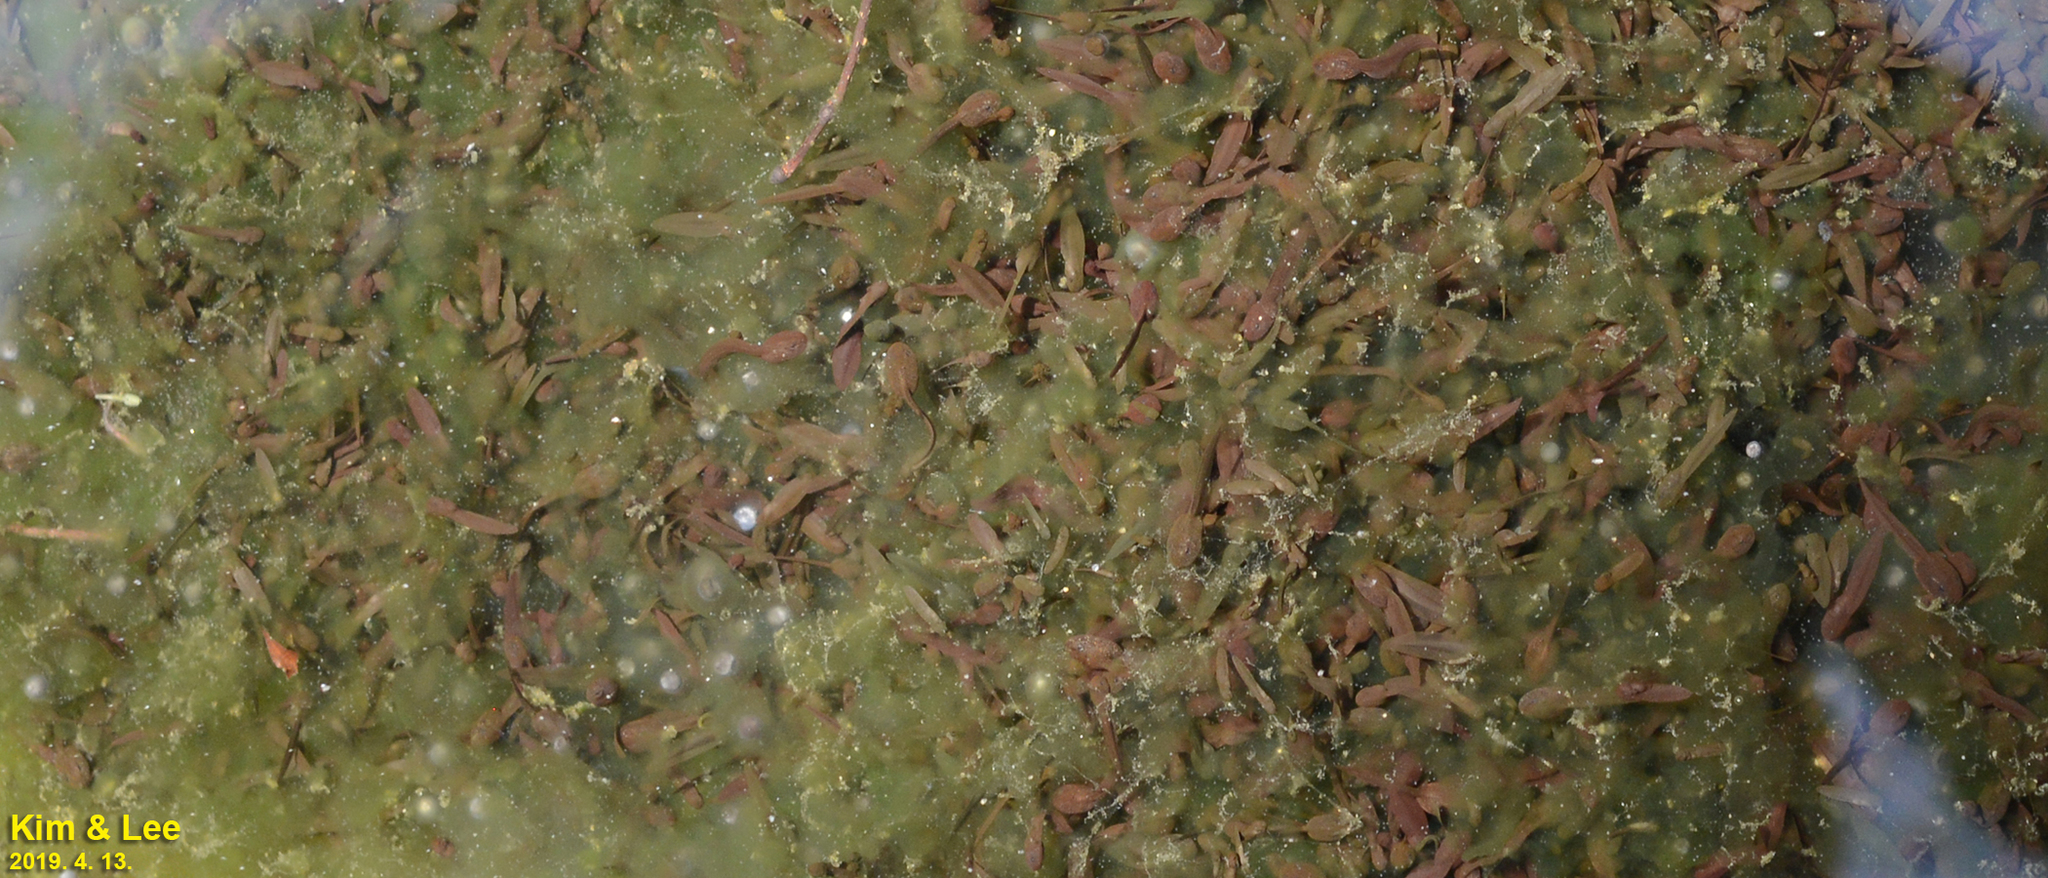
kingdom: Animalia
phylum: Chordata
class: Amphibia
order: Anura
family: Ranidae
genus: Rana
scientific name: Rana uenoi
